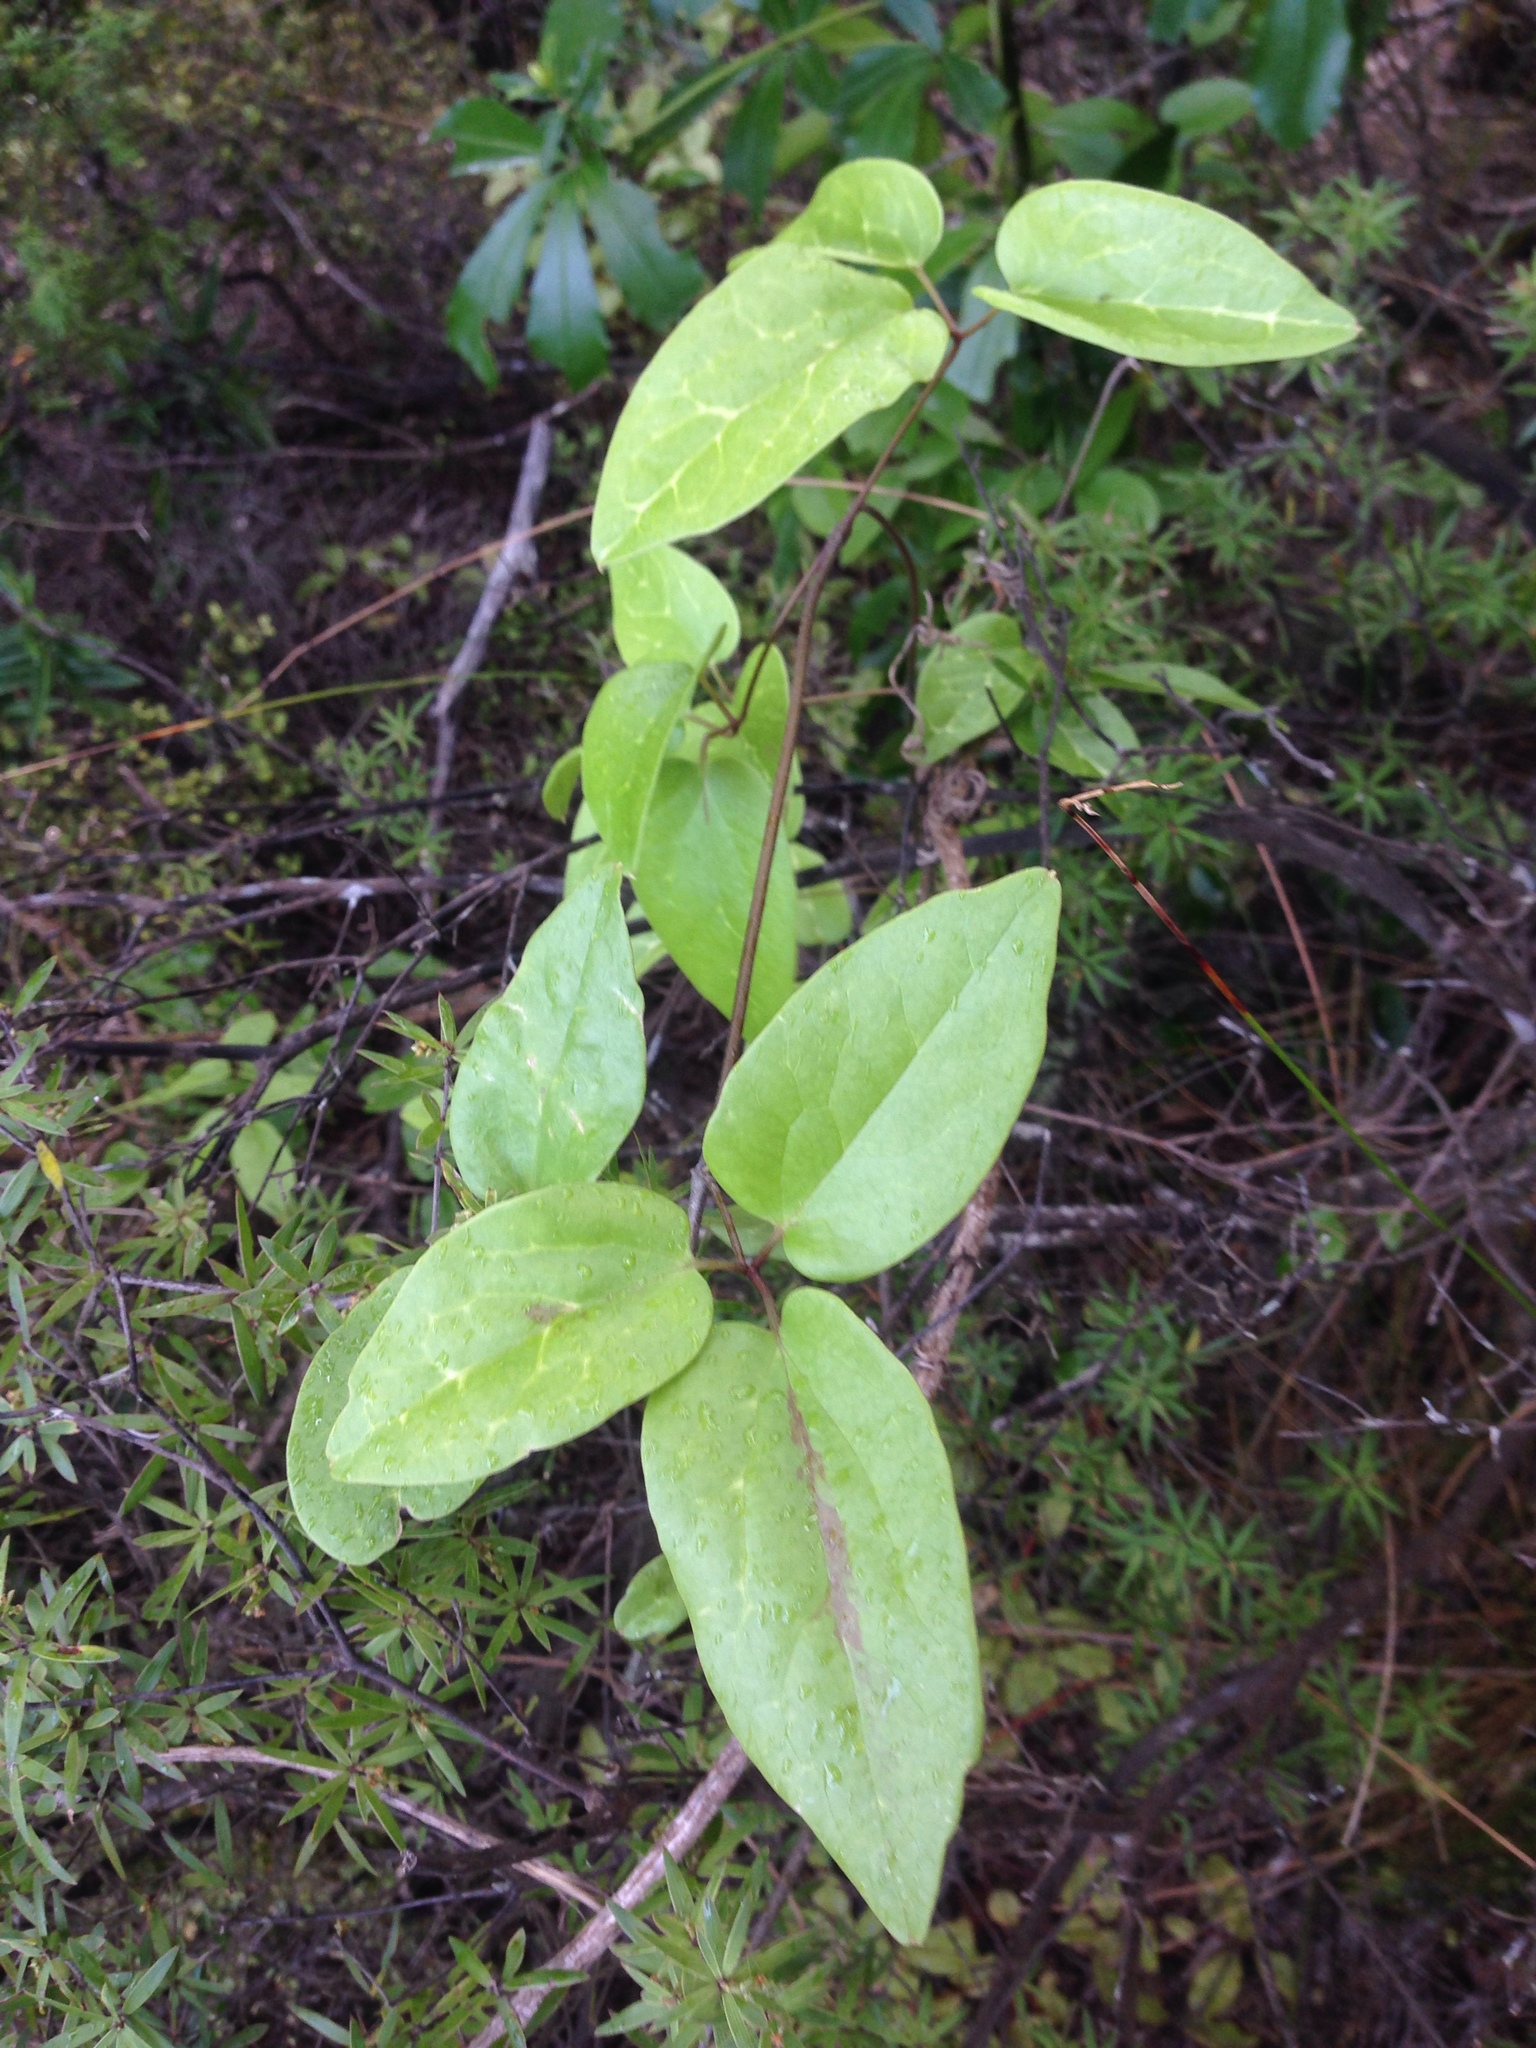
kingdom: Plantae
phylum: Tracheophyta
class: Magnoliopsida
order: Ranunculales
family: Ranunculaceae
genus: Clematis
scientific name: Clematis paniculata
